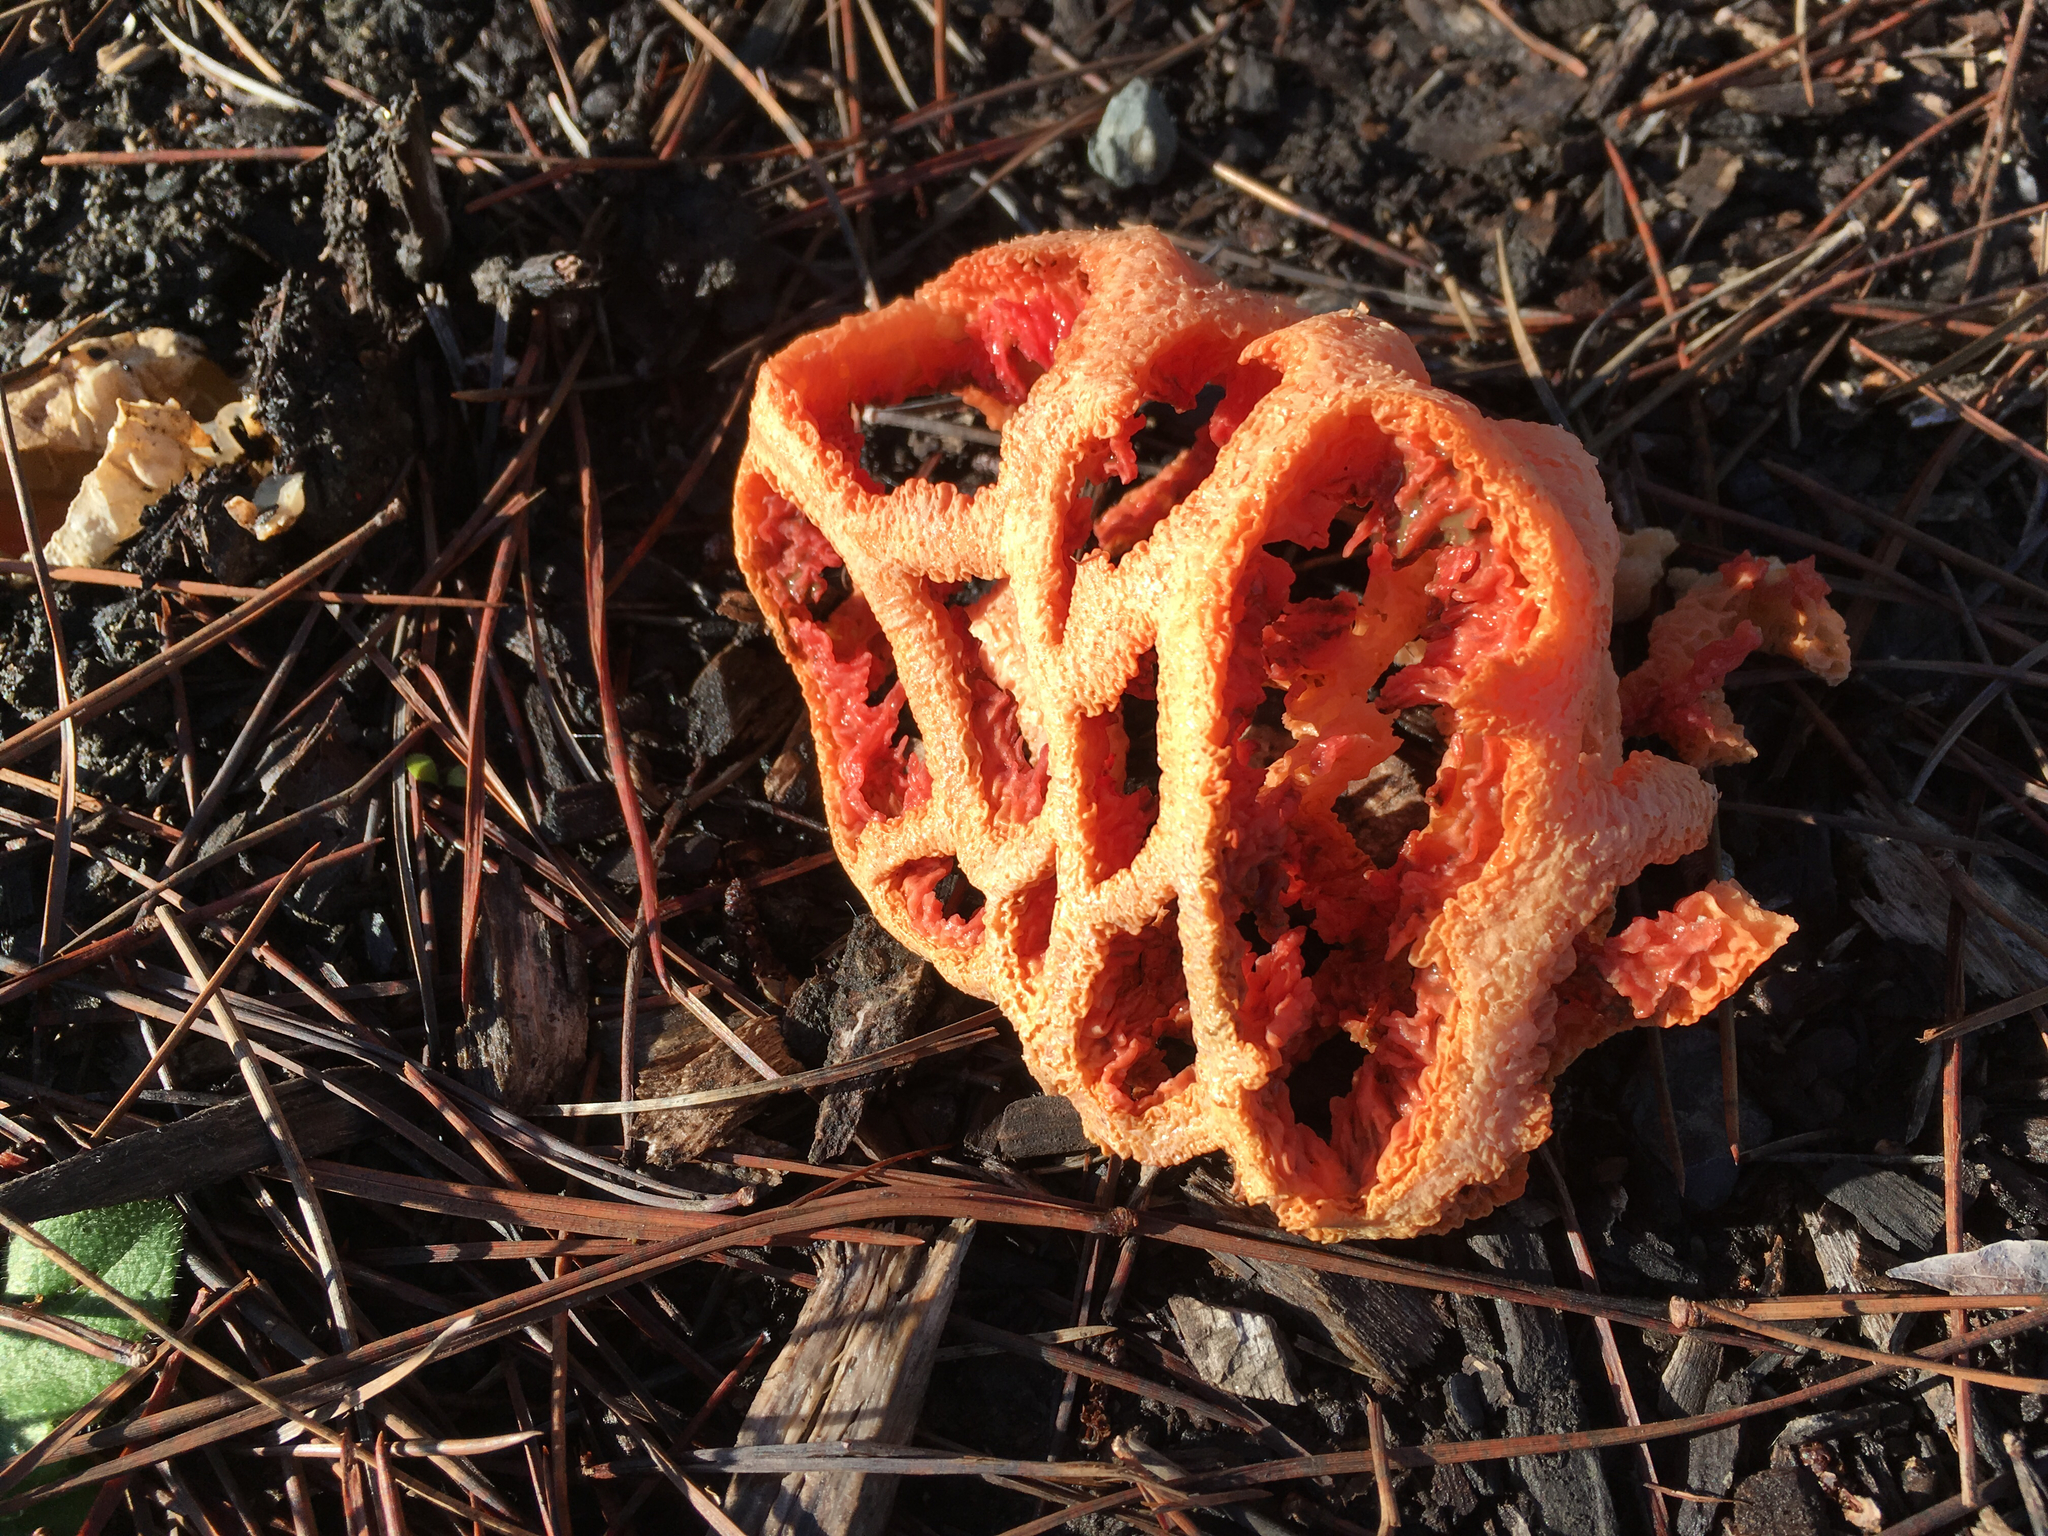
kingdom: Fungi
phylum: Basidiomycota
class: Agaricomycetes
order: Phallales
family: Phallaceae
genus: Clathrus
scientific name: Clathrus ruber
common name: Red cage
